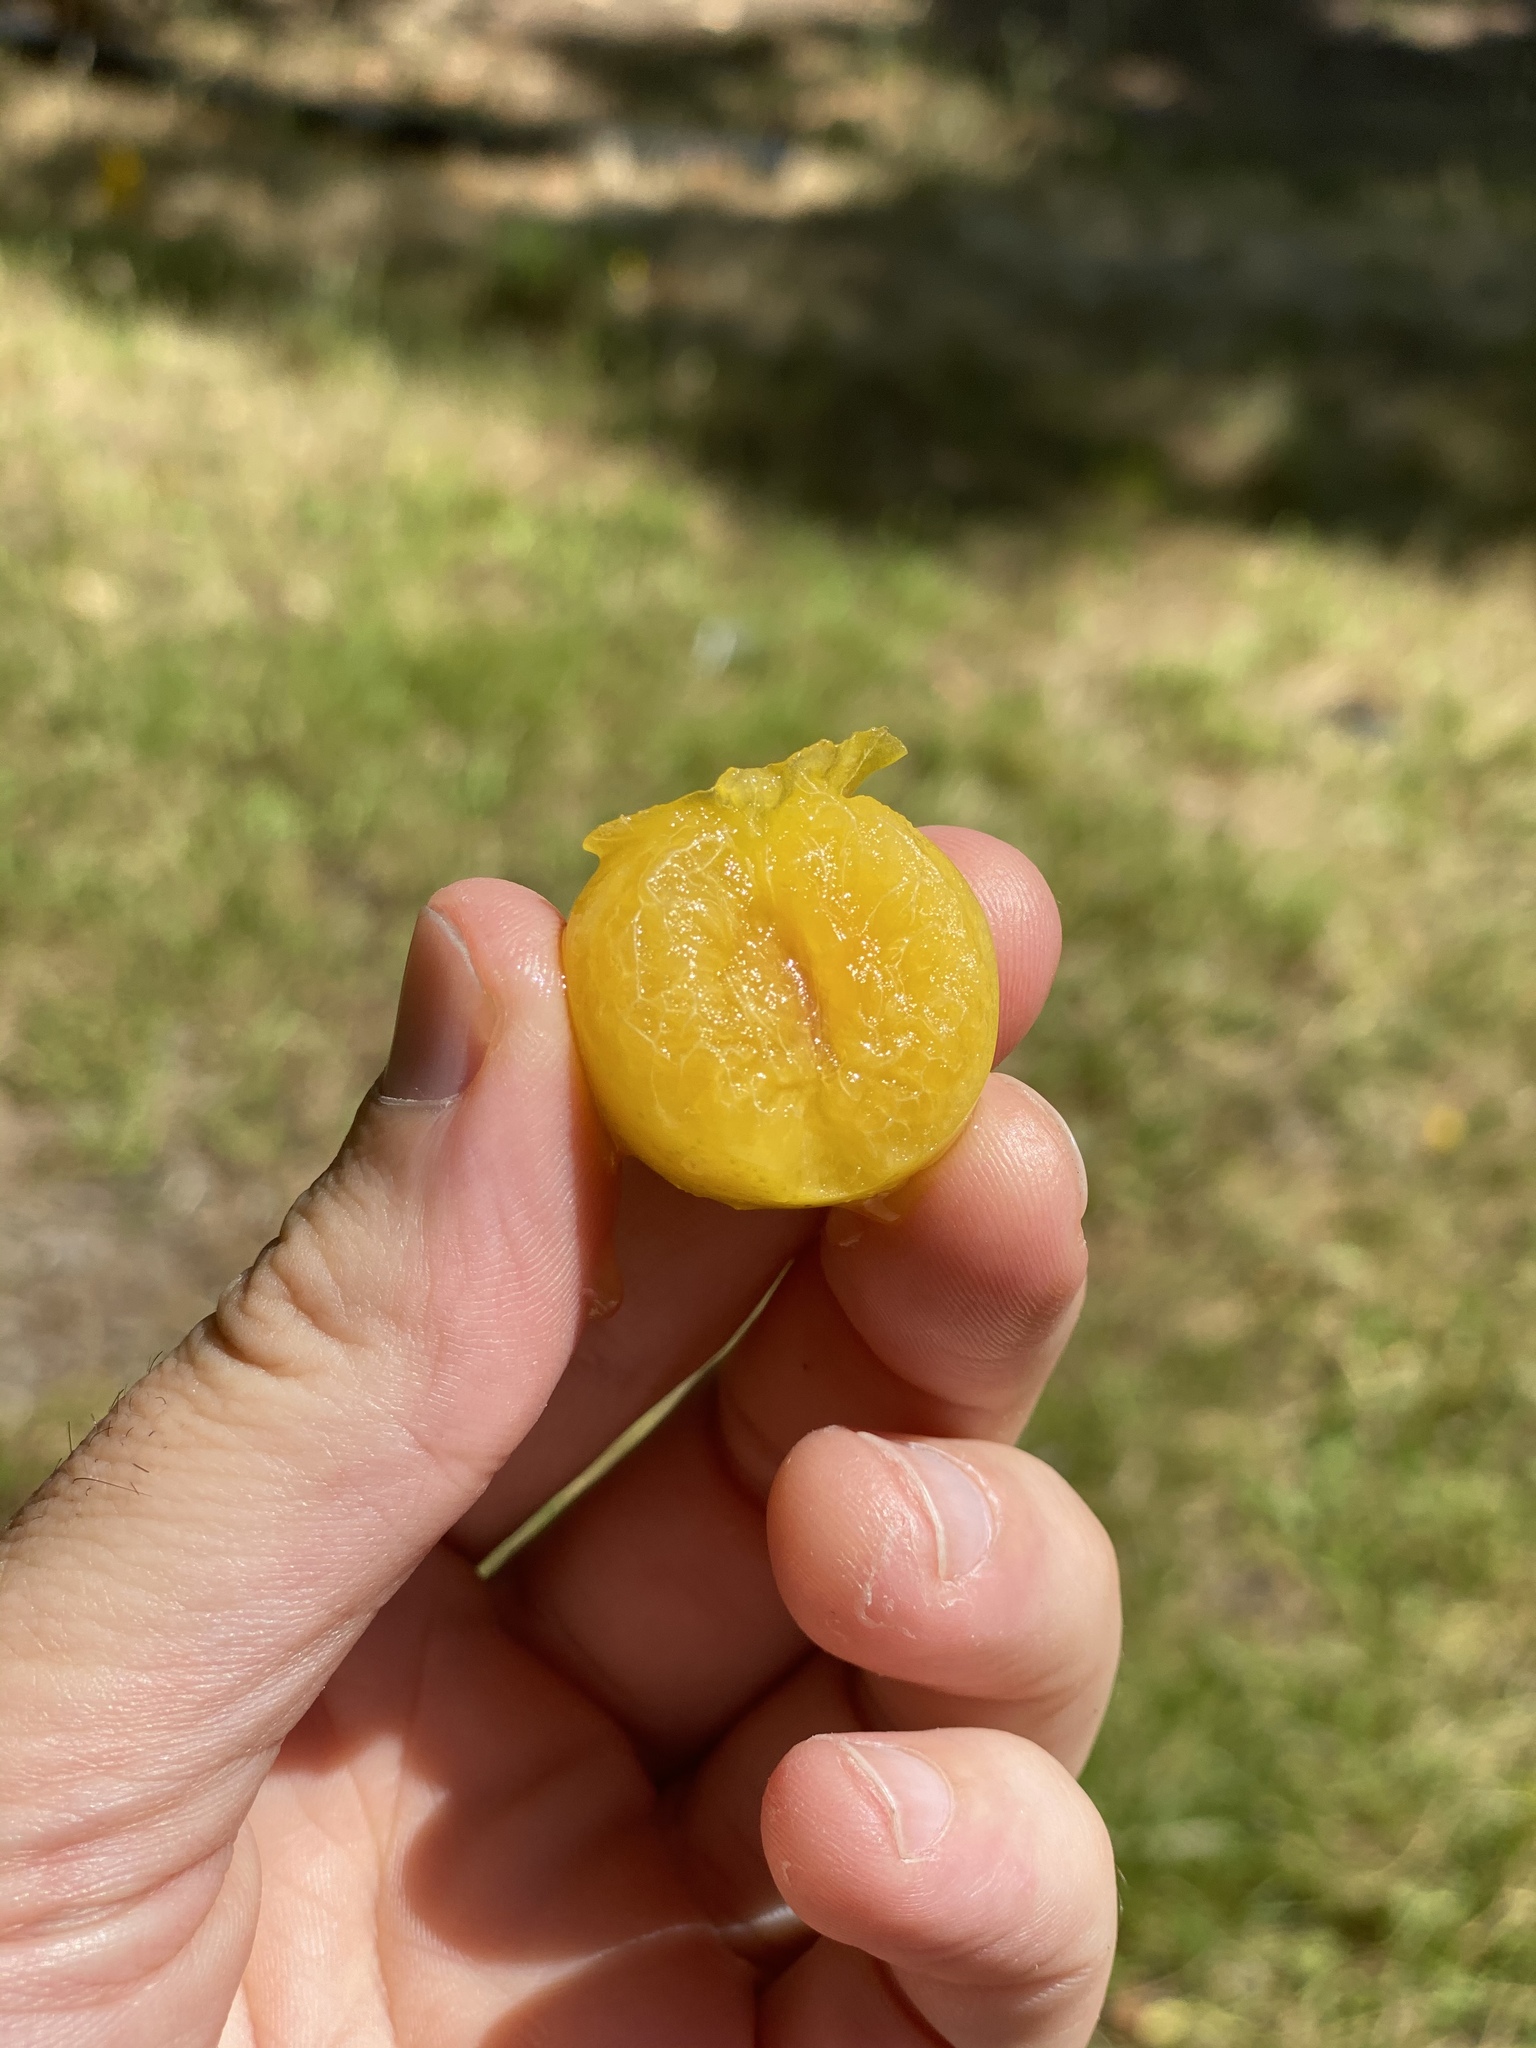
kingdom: Plantae
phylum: Tracheophyta
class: Magnoliopsida
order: Rosales
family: Rosaceae
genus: Prunus
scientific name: Prunus cerasifera
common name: Cherry plum
